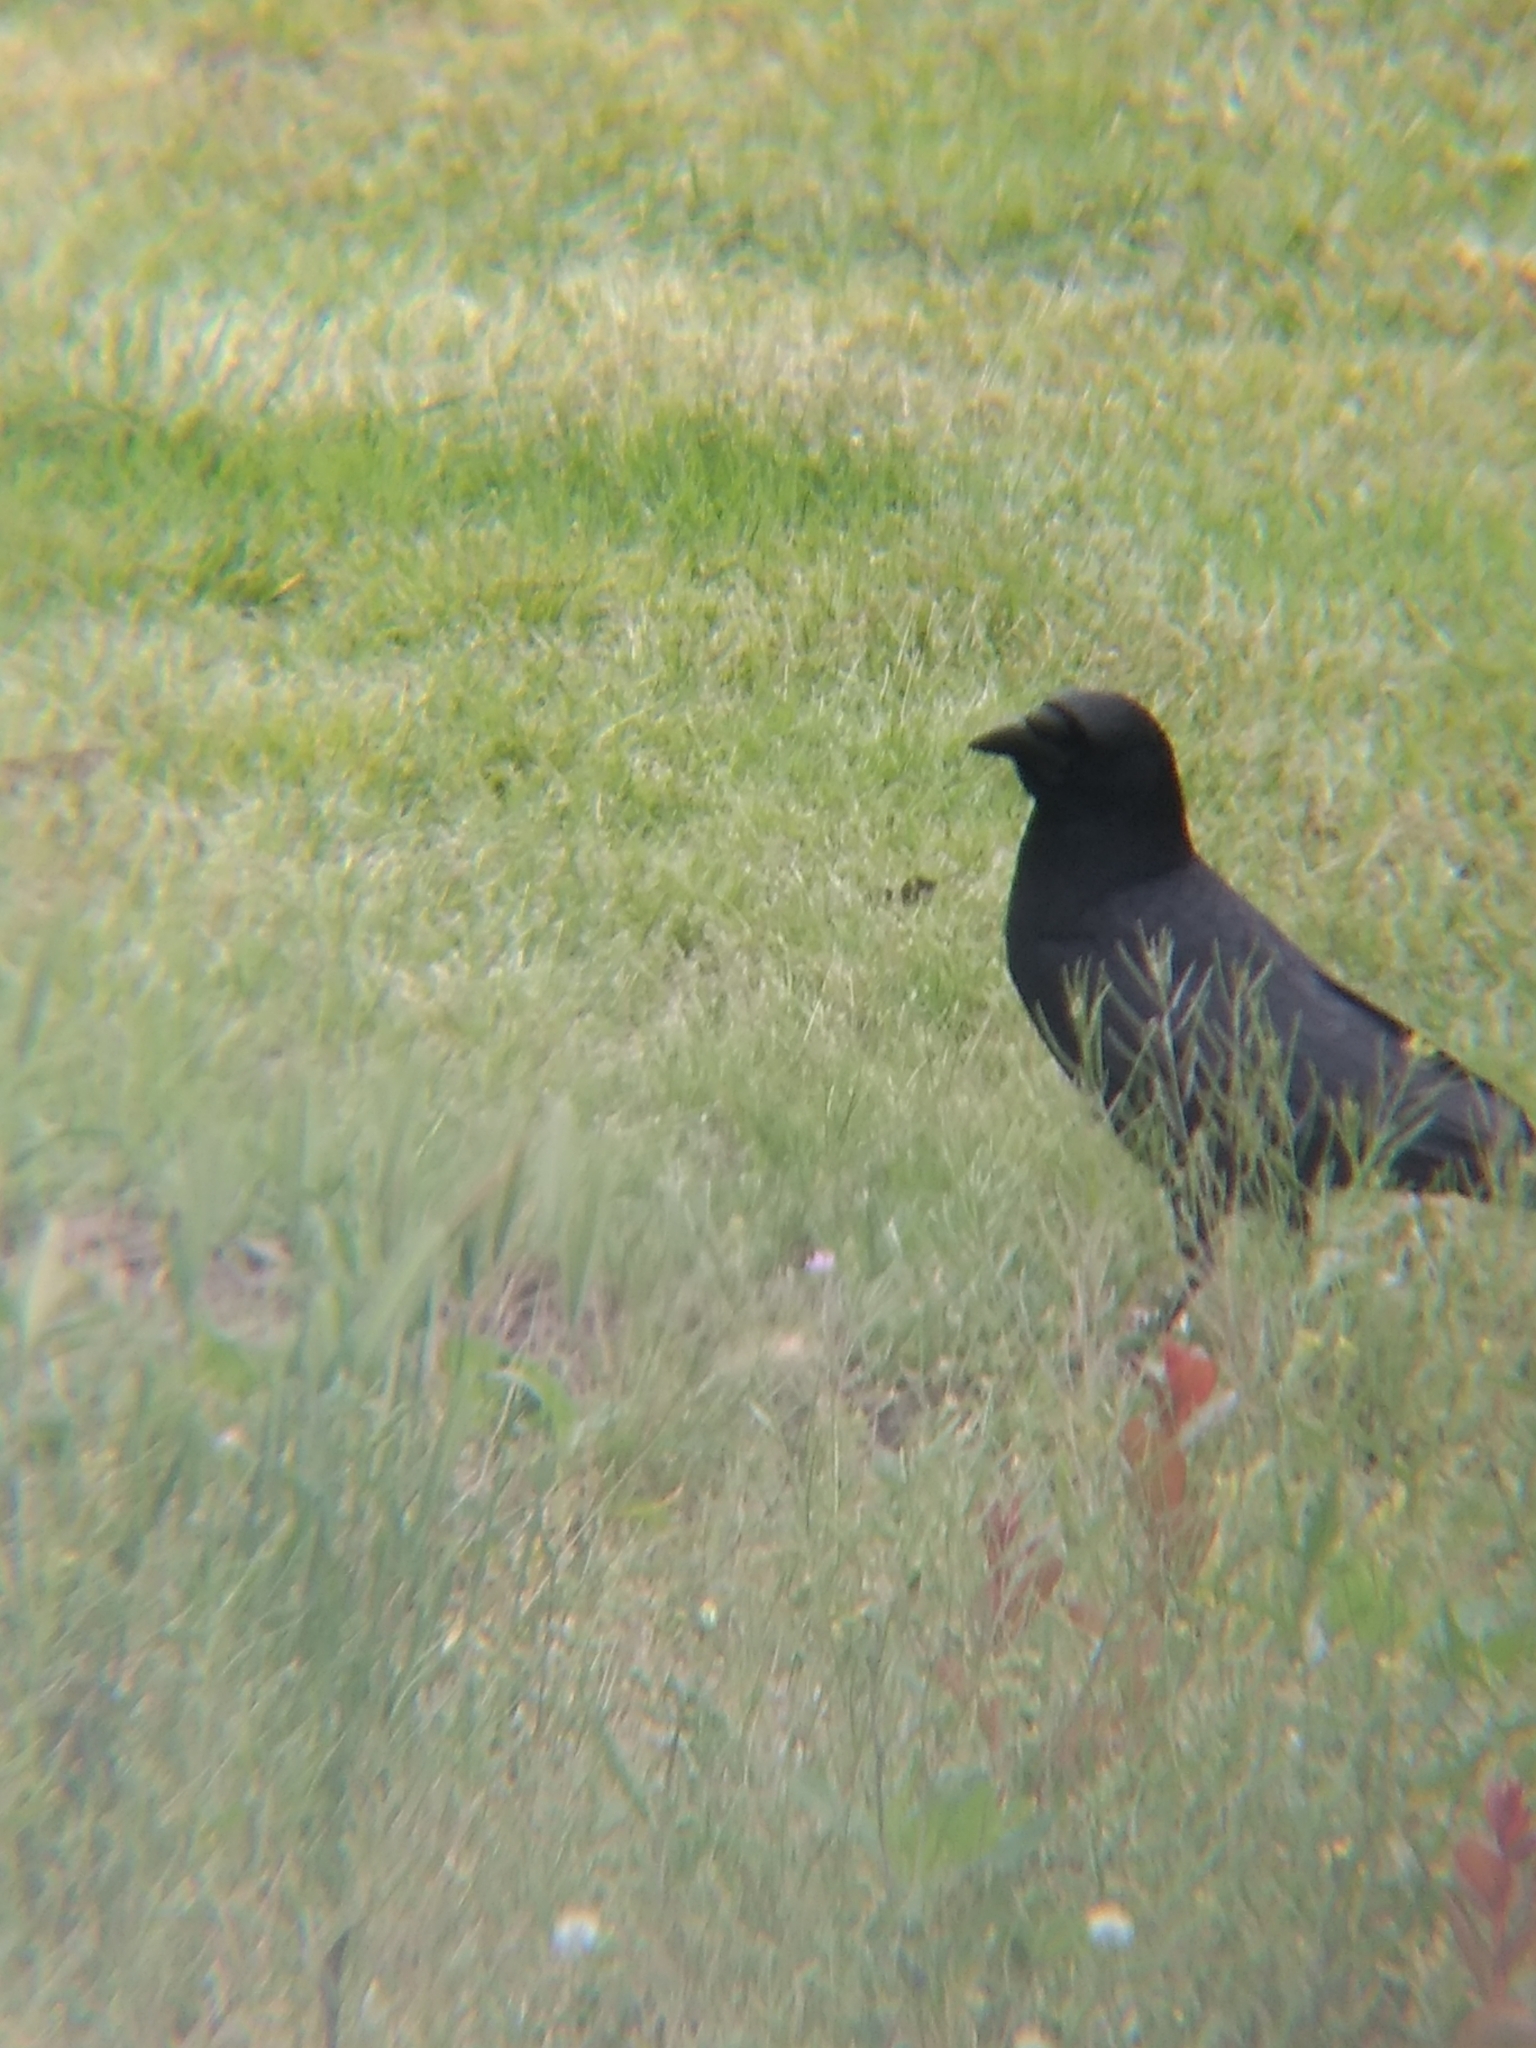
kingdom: Animalia
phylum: Chordata
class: Aves
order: Passeriformes
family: Corvidae
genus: Corvus
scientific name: Corvus brachyrhynchos
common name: American crow
